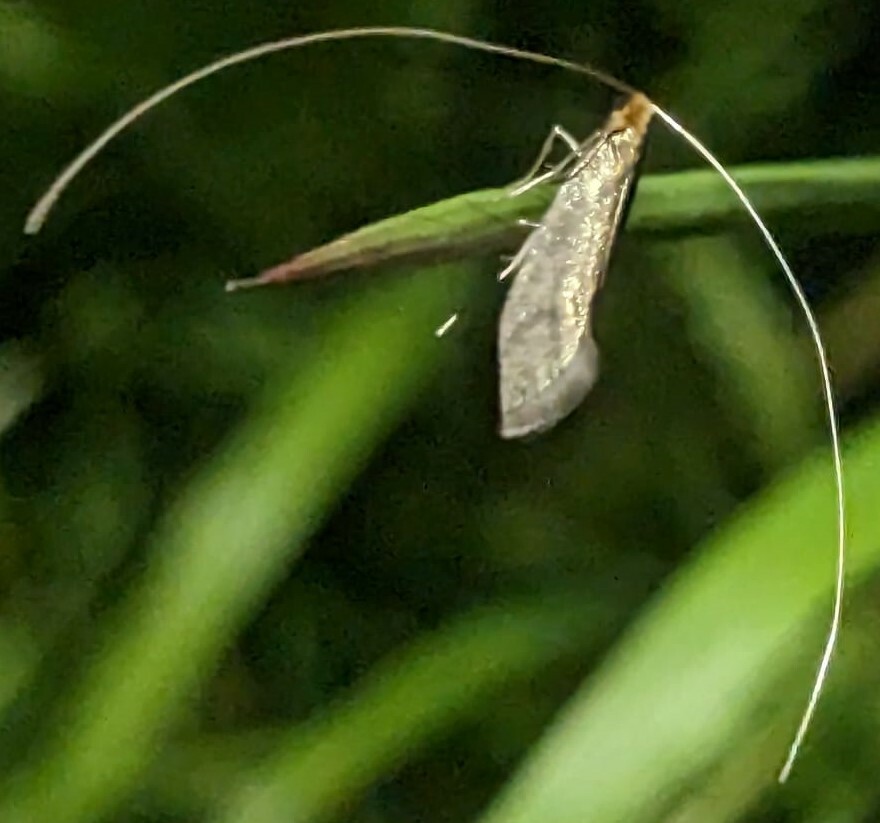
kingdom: Animalia
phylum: Arthropoda
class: Insecta
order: Lepidoptera
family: Adelidae
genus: Nematopogon
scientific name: Nematopogon swammerdamella
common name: Large long-horn
